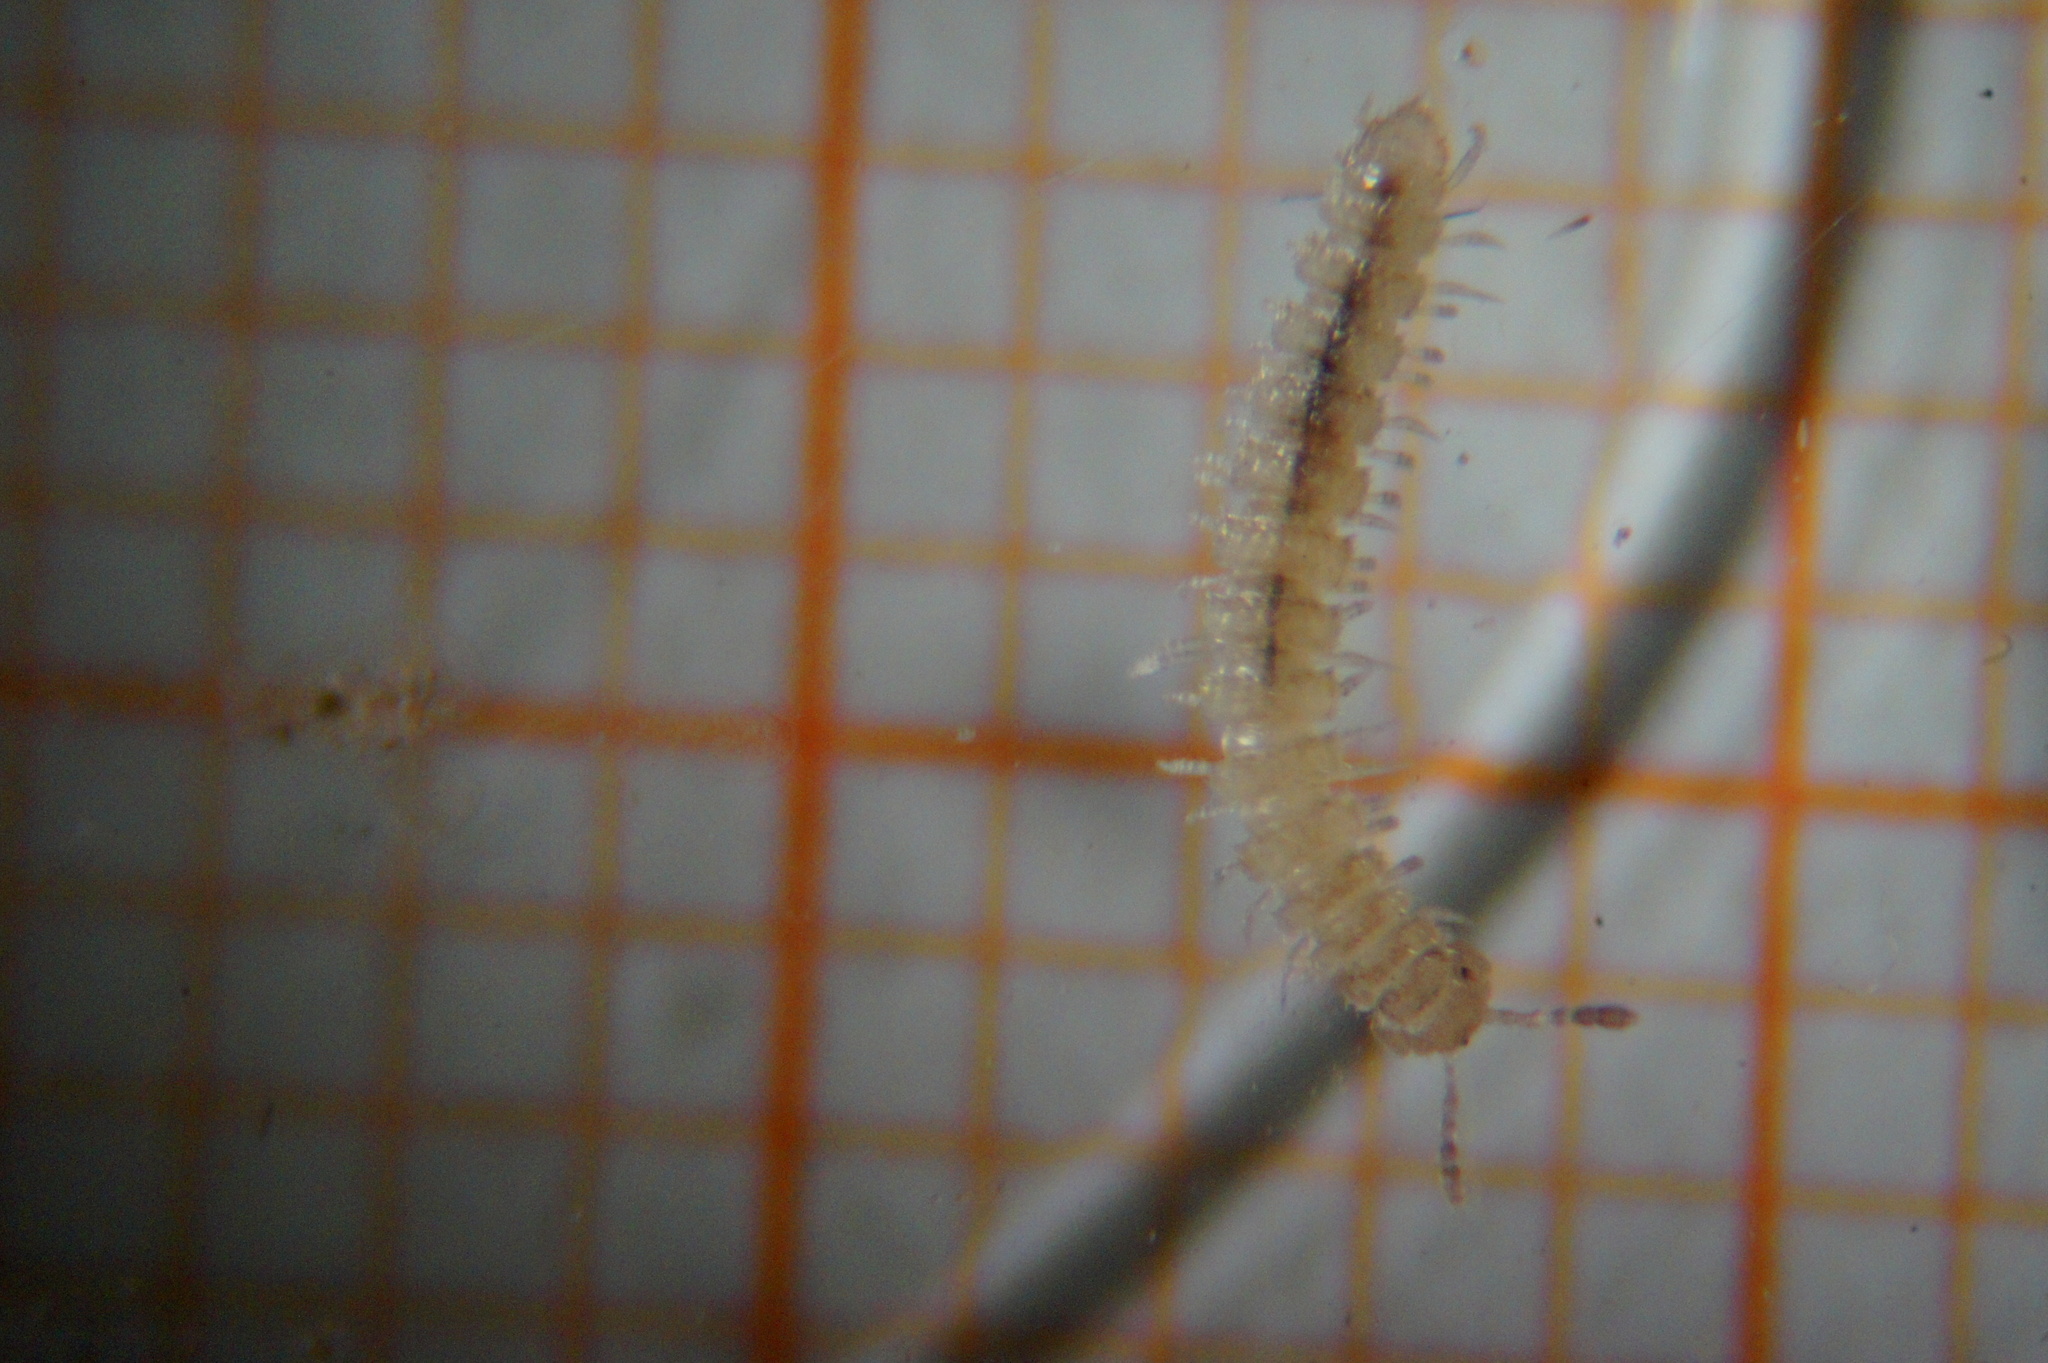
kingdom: Animalia
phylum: Arthropoda
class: Diplopoda
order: Polydesmida
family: Polydesmidae
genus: Brachydesmus
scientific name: Brachydesmus superus
